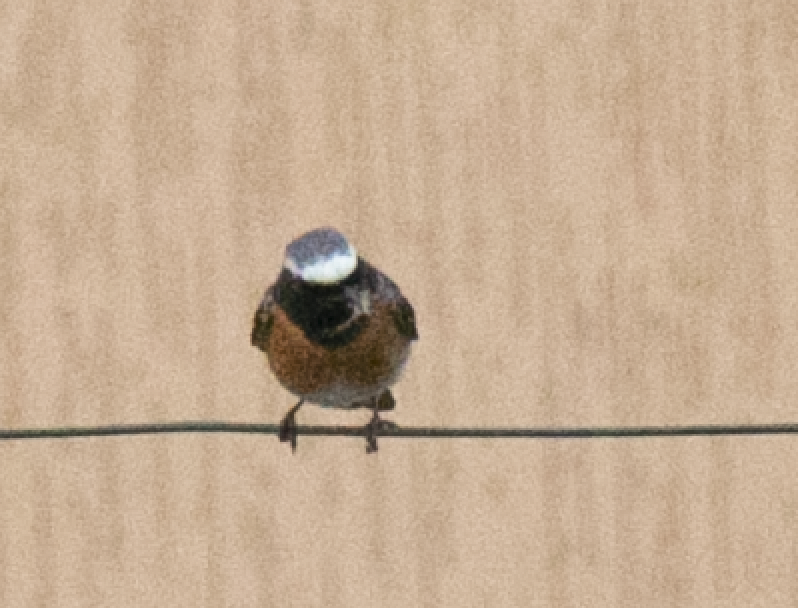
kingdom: Animalia
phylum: Chordata
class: Aves
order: Passeriformes
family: Muscicapidae
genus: Phoenicurus
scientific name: Phoenicurus phoenicurus
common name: Common redstart
